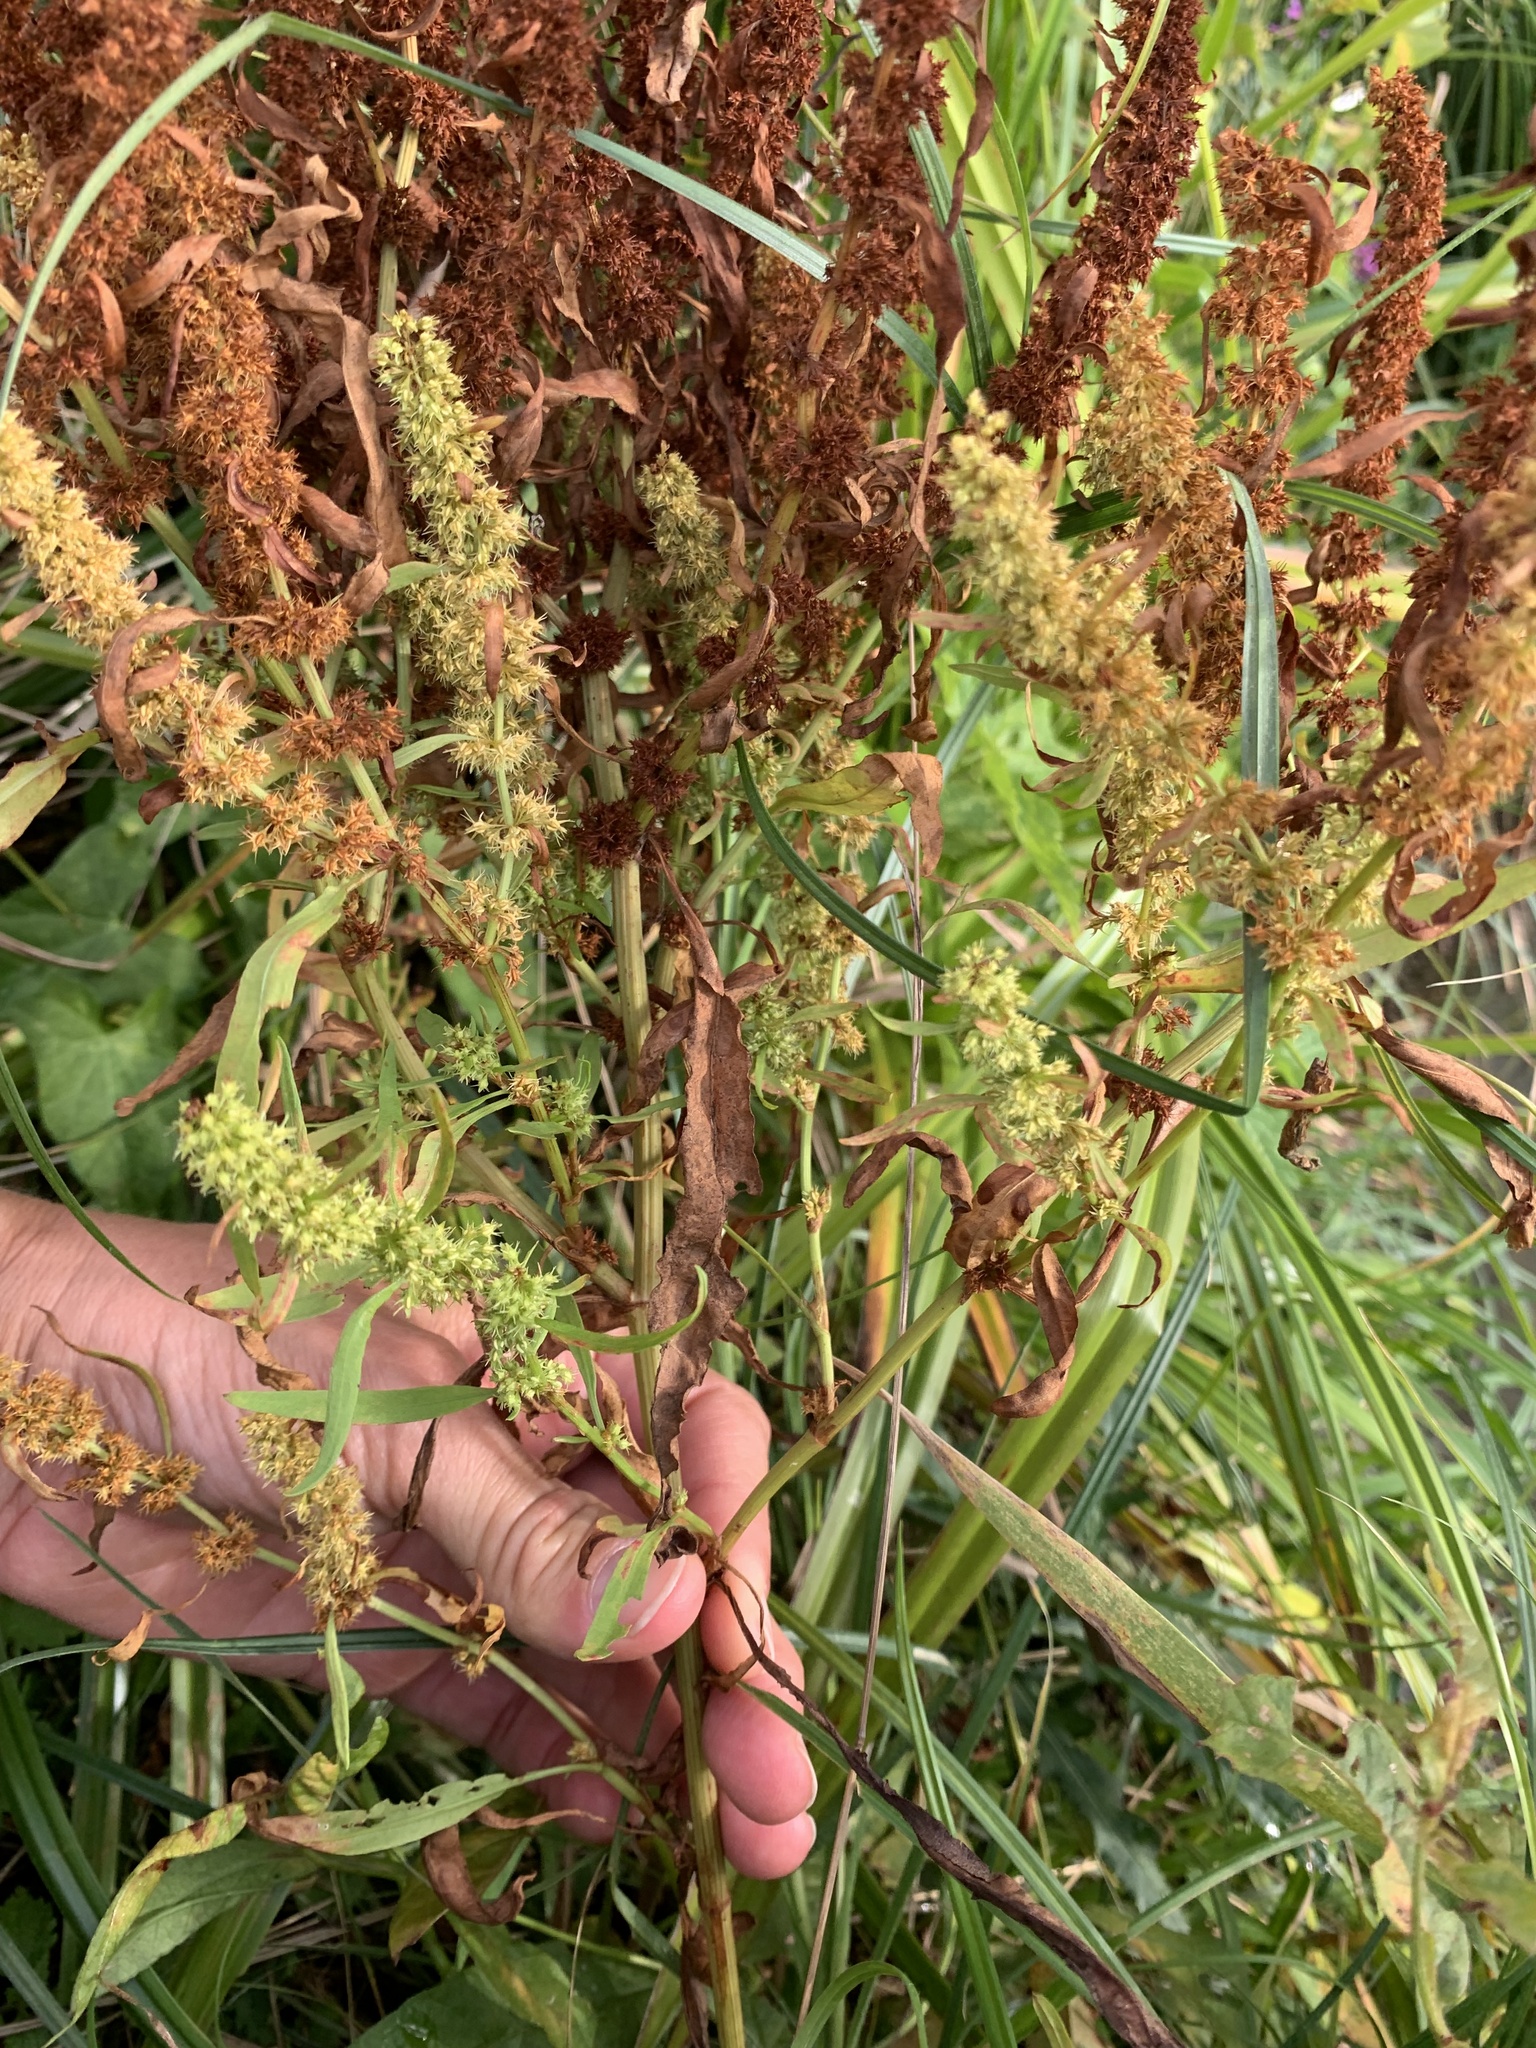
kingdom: Plantae
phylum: Tracheophyta
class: Magnoliopsida
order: Caryophyllales
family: Polygonaceae
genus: Rumex
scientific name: Rumex maritimus
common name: Golden dock
